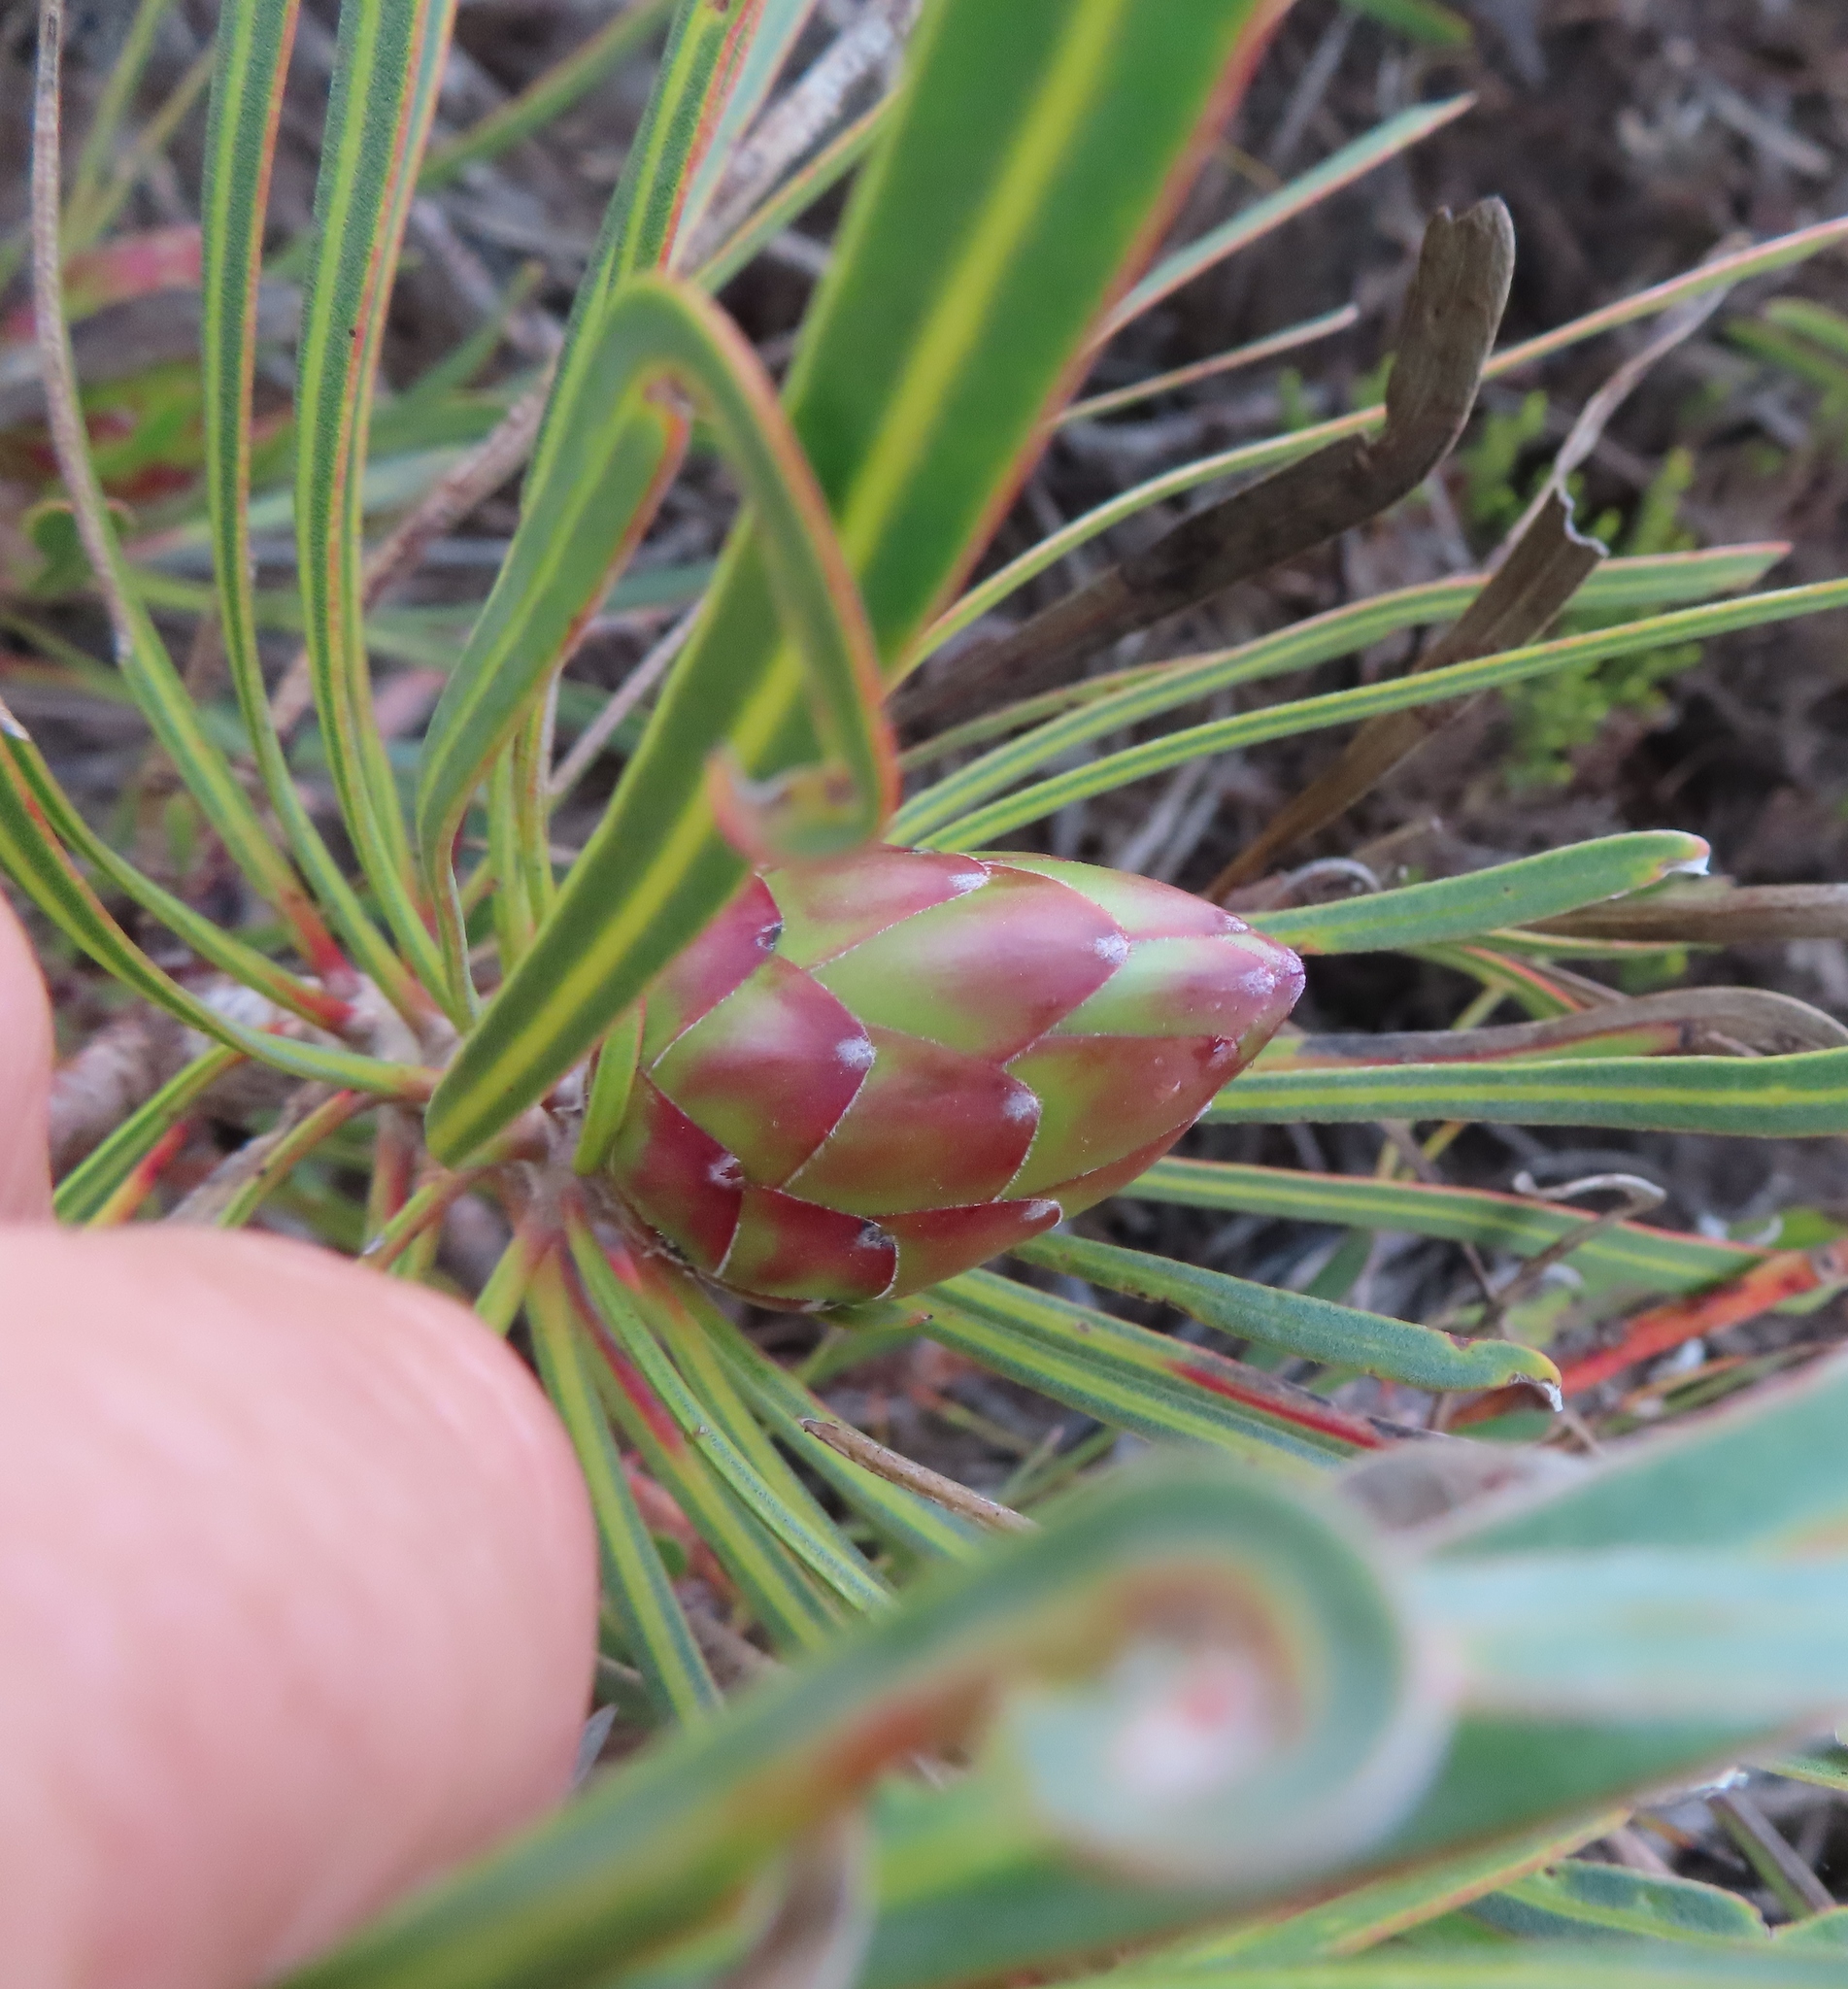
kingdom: Plantae
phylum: Tracheophyta
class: Magnoliopsida
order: Proteales
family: Proteaceae
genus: Protea
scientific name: Protea longifolia
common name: Long-leaf sugarbush
